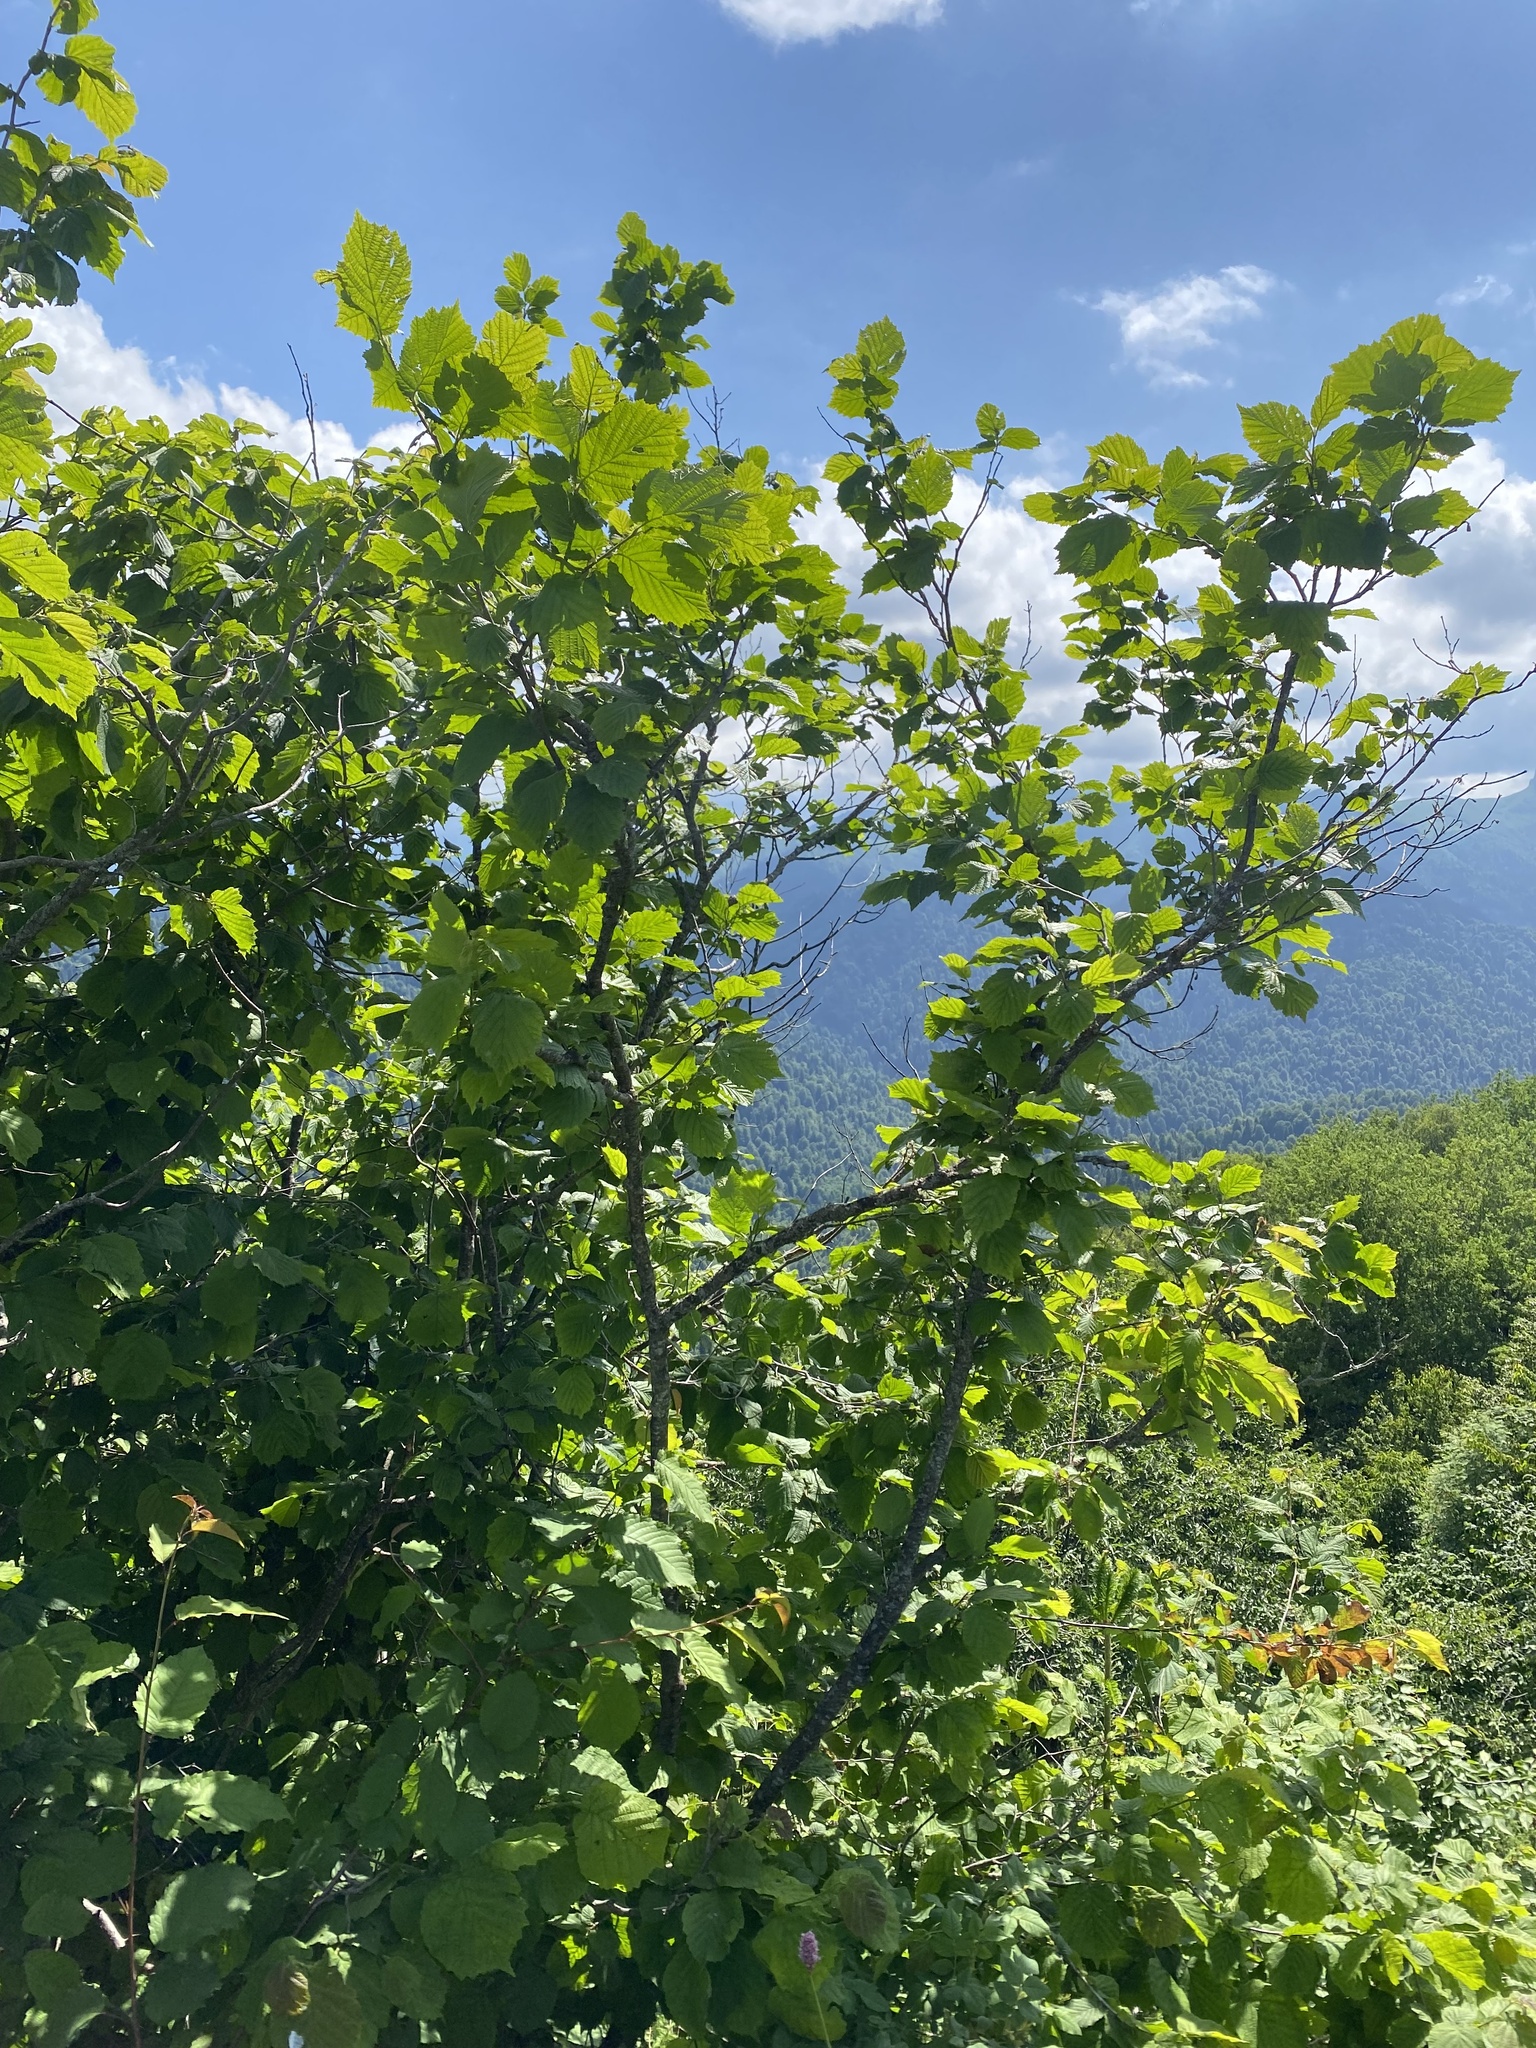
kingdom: Plantae
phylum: Tracheophyta
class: Magnoliopsida
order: Fagales
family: Betulaceae
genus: Corylus
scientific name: Corylus avellana
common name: European hazel
